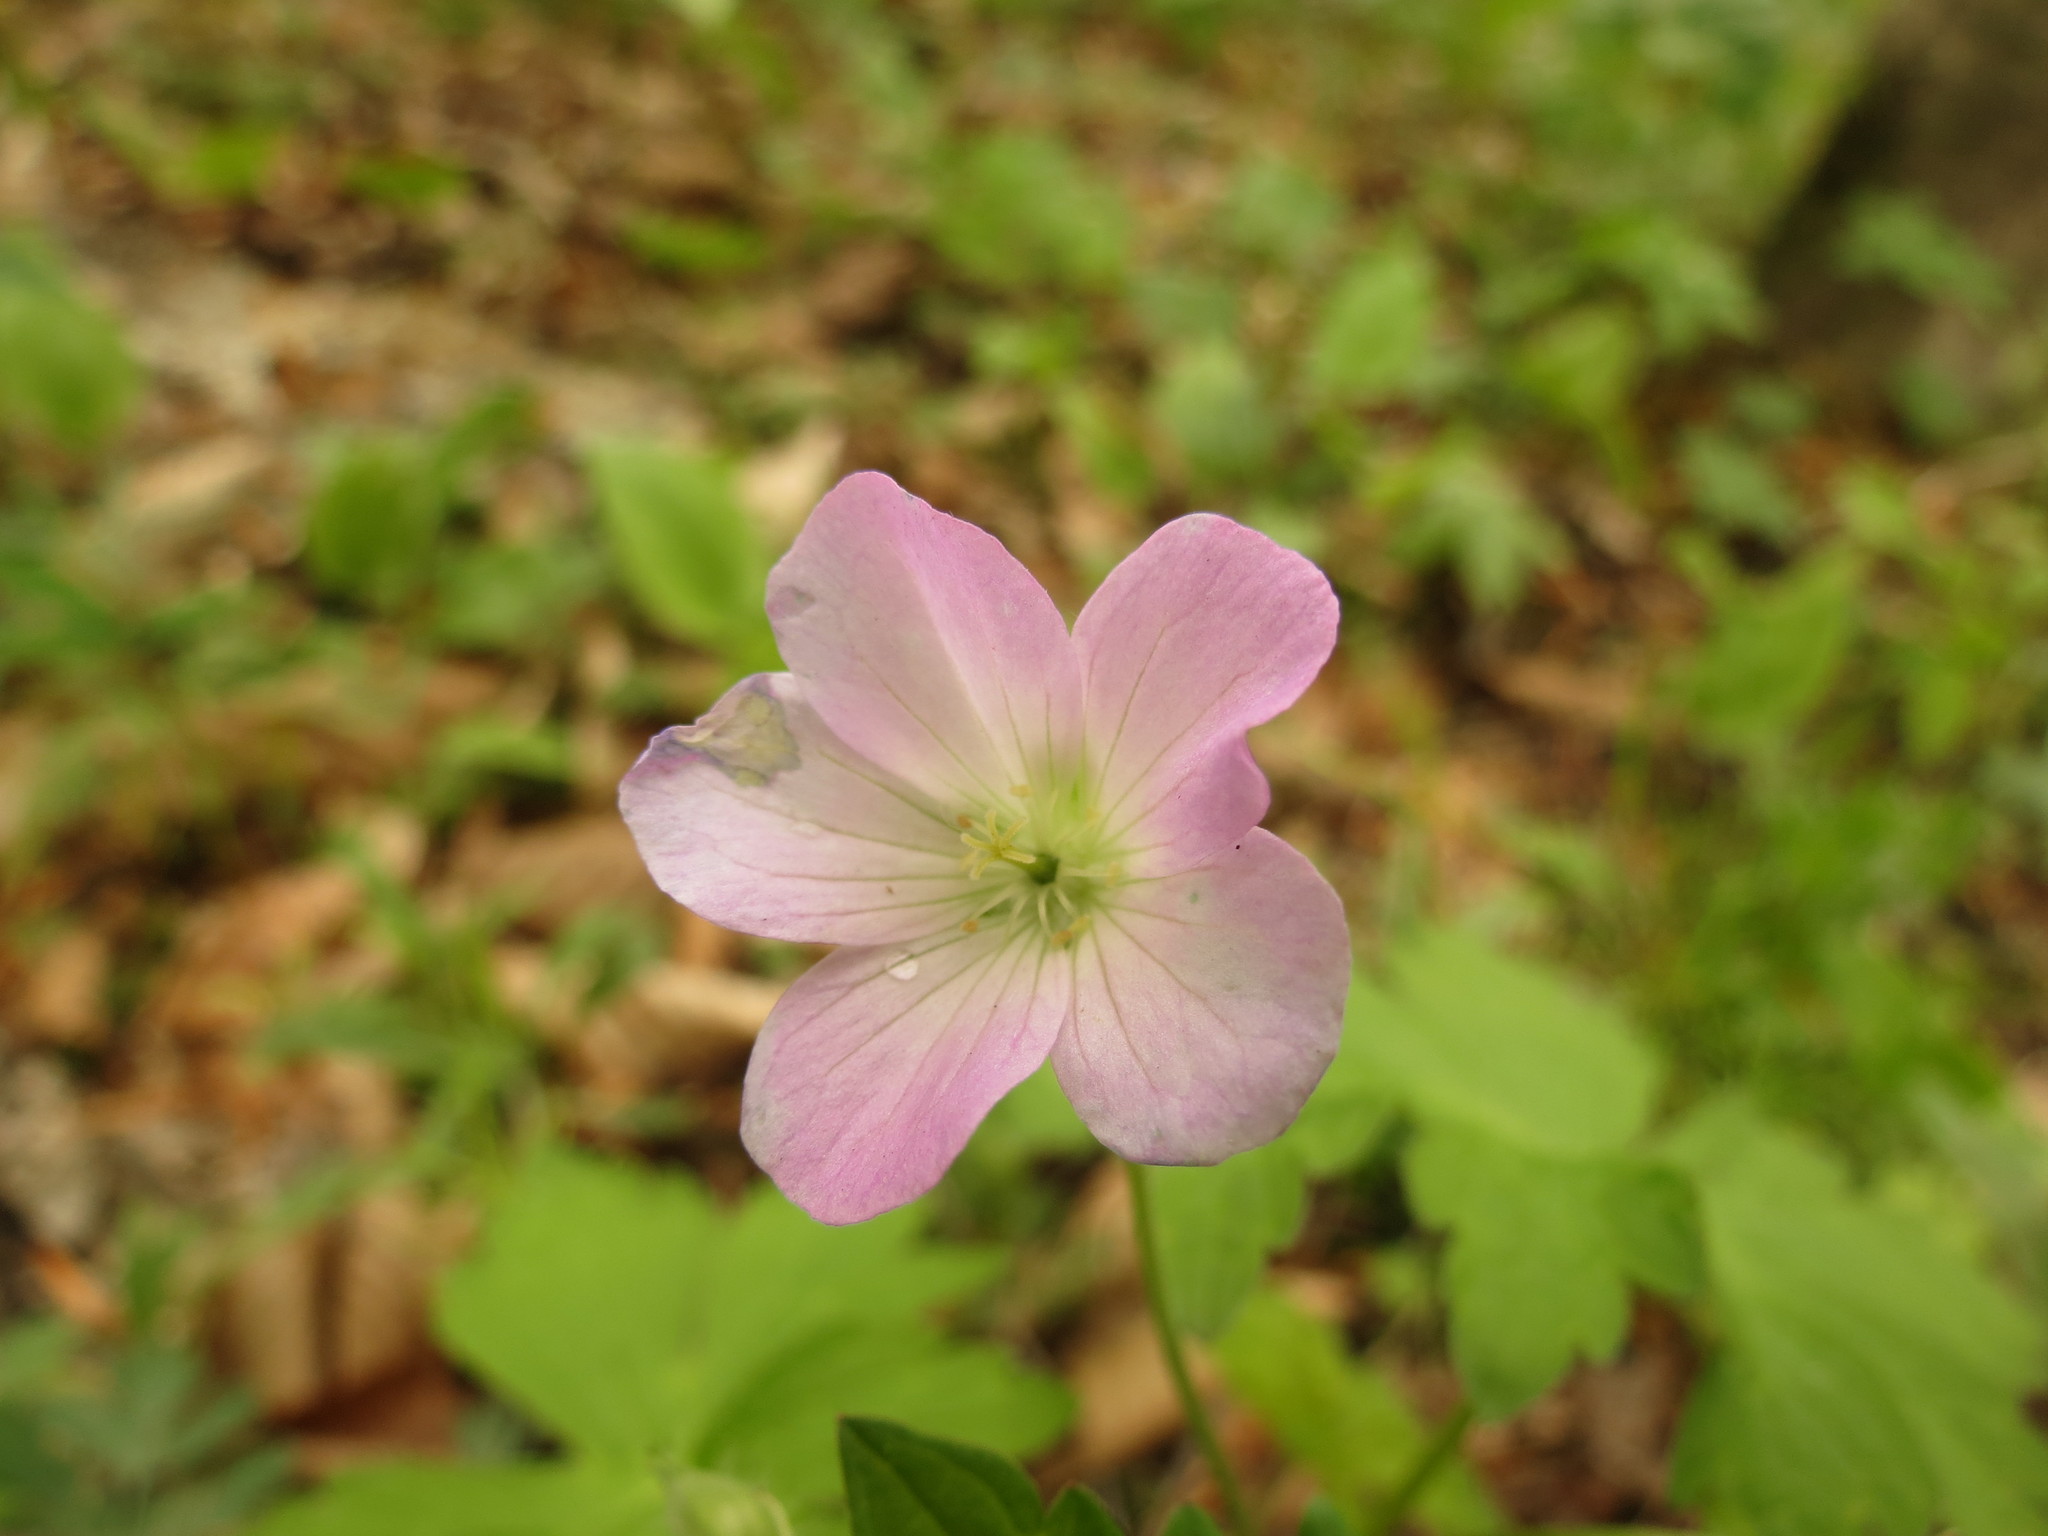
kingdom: Plantae
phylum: Tracheophyta
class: Magnoliopsida
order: Geraniales
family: Geraniaceae
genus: Geranium
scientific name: Geranium maculatum
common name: Spotted geranium
